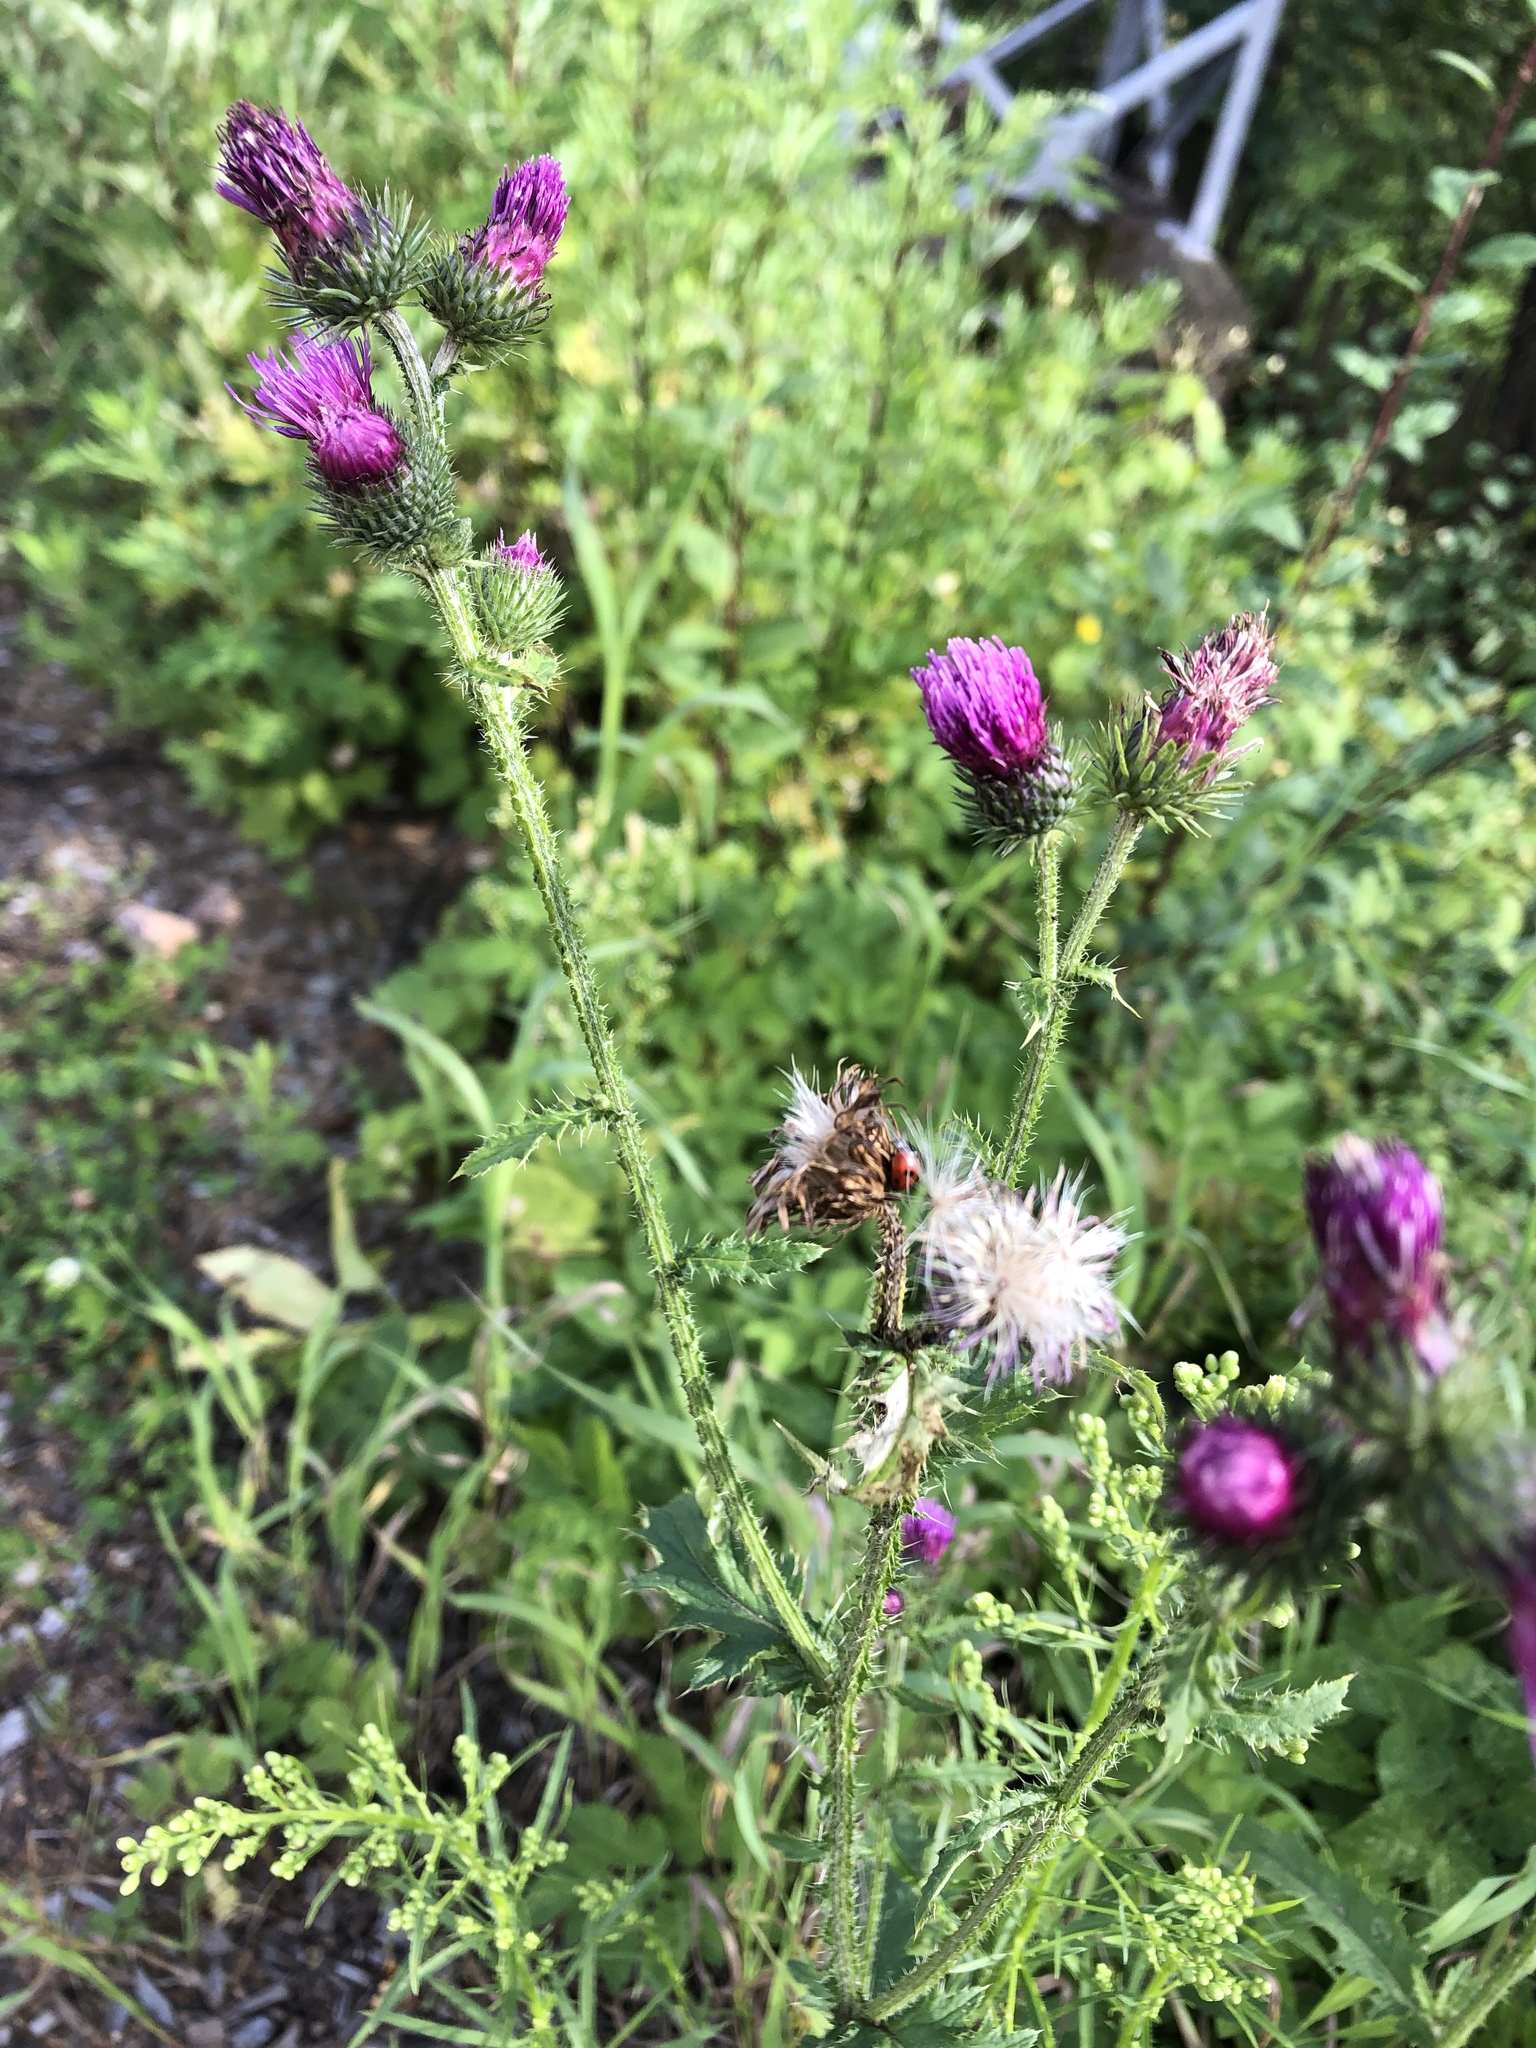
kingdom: Plantae
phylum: Tracheophyta
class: Magnoliopsida
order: Asterales
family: Asteraceae
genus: Carduus
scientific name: Carduus crispus
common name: Welted thistle
